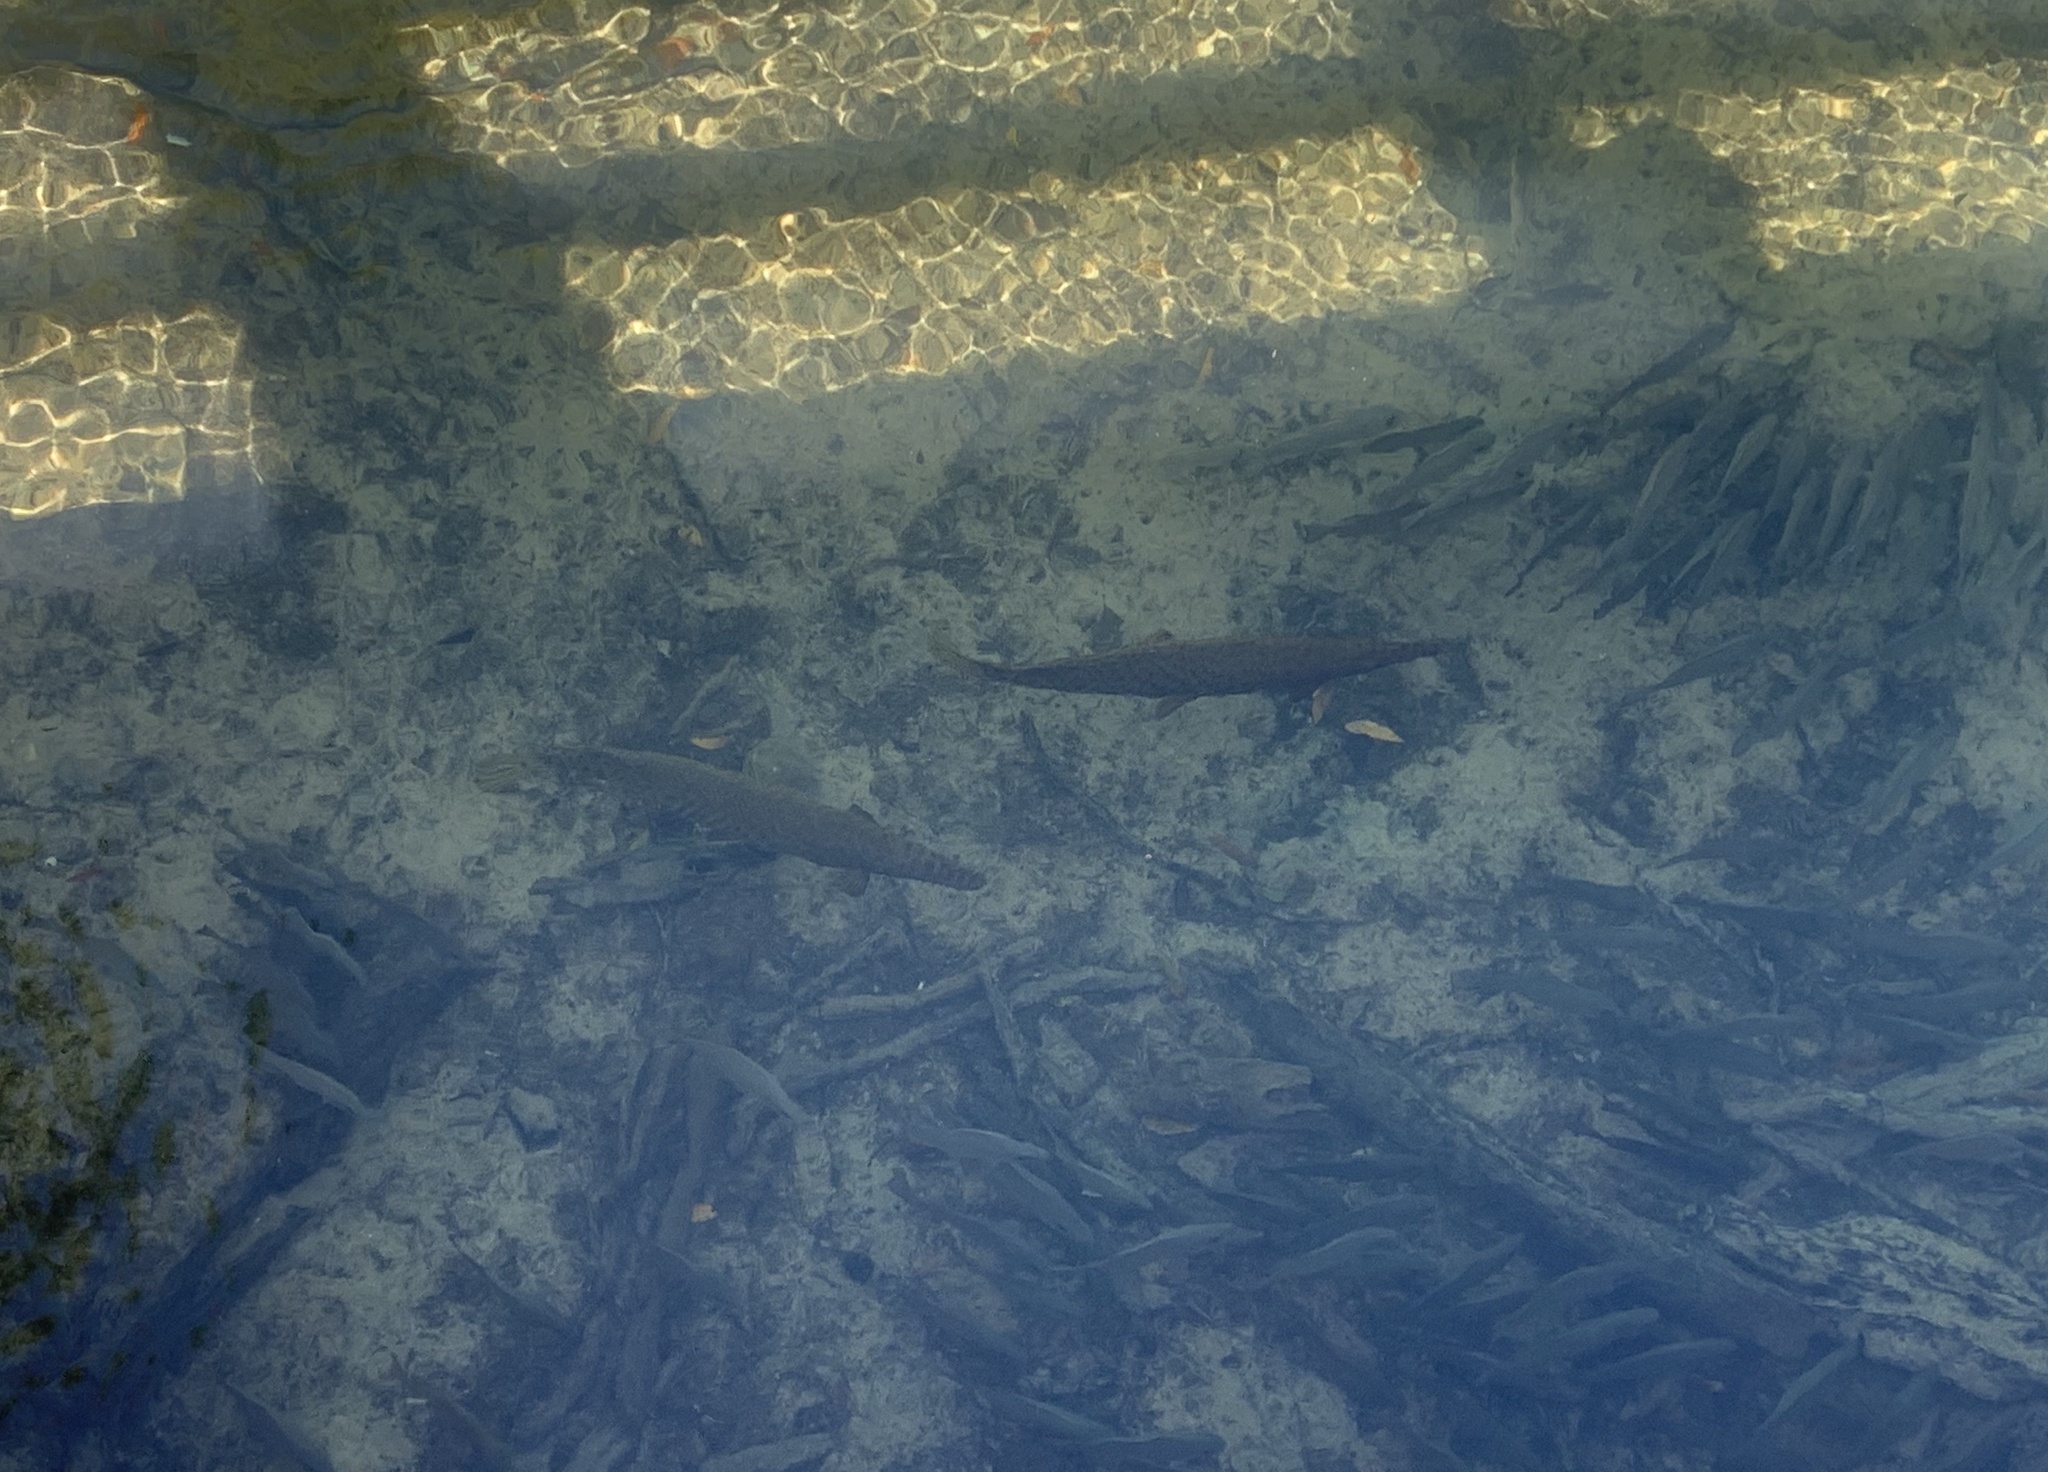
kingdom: Animalia
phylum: Chordata
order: Lepisosteiformes
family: Lepisosteidae
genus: Lepisosteus
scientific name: Lepisosteus platyrhincus
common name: Florida gar
